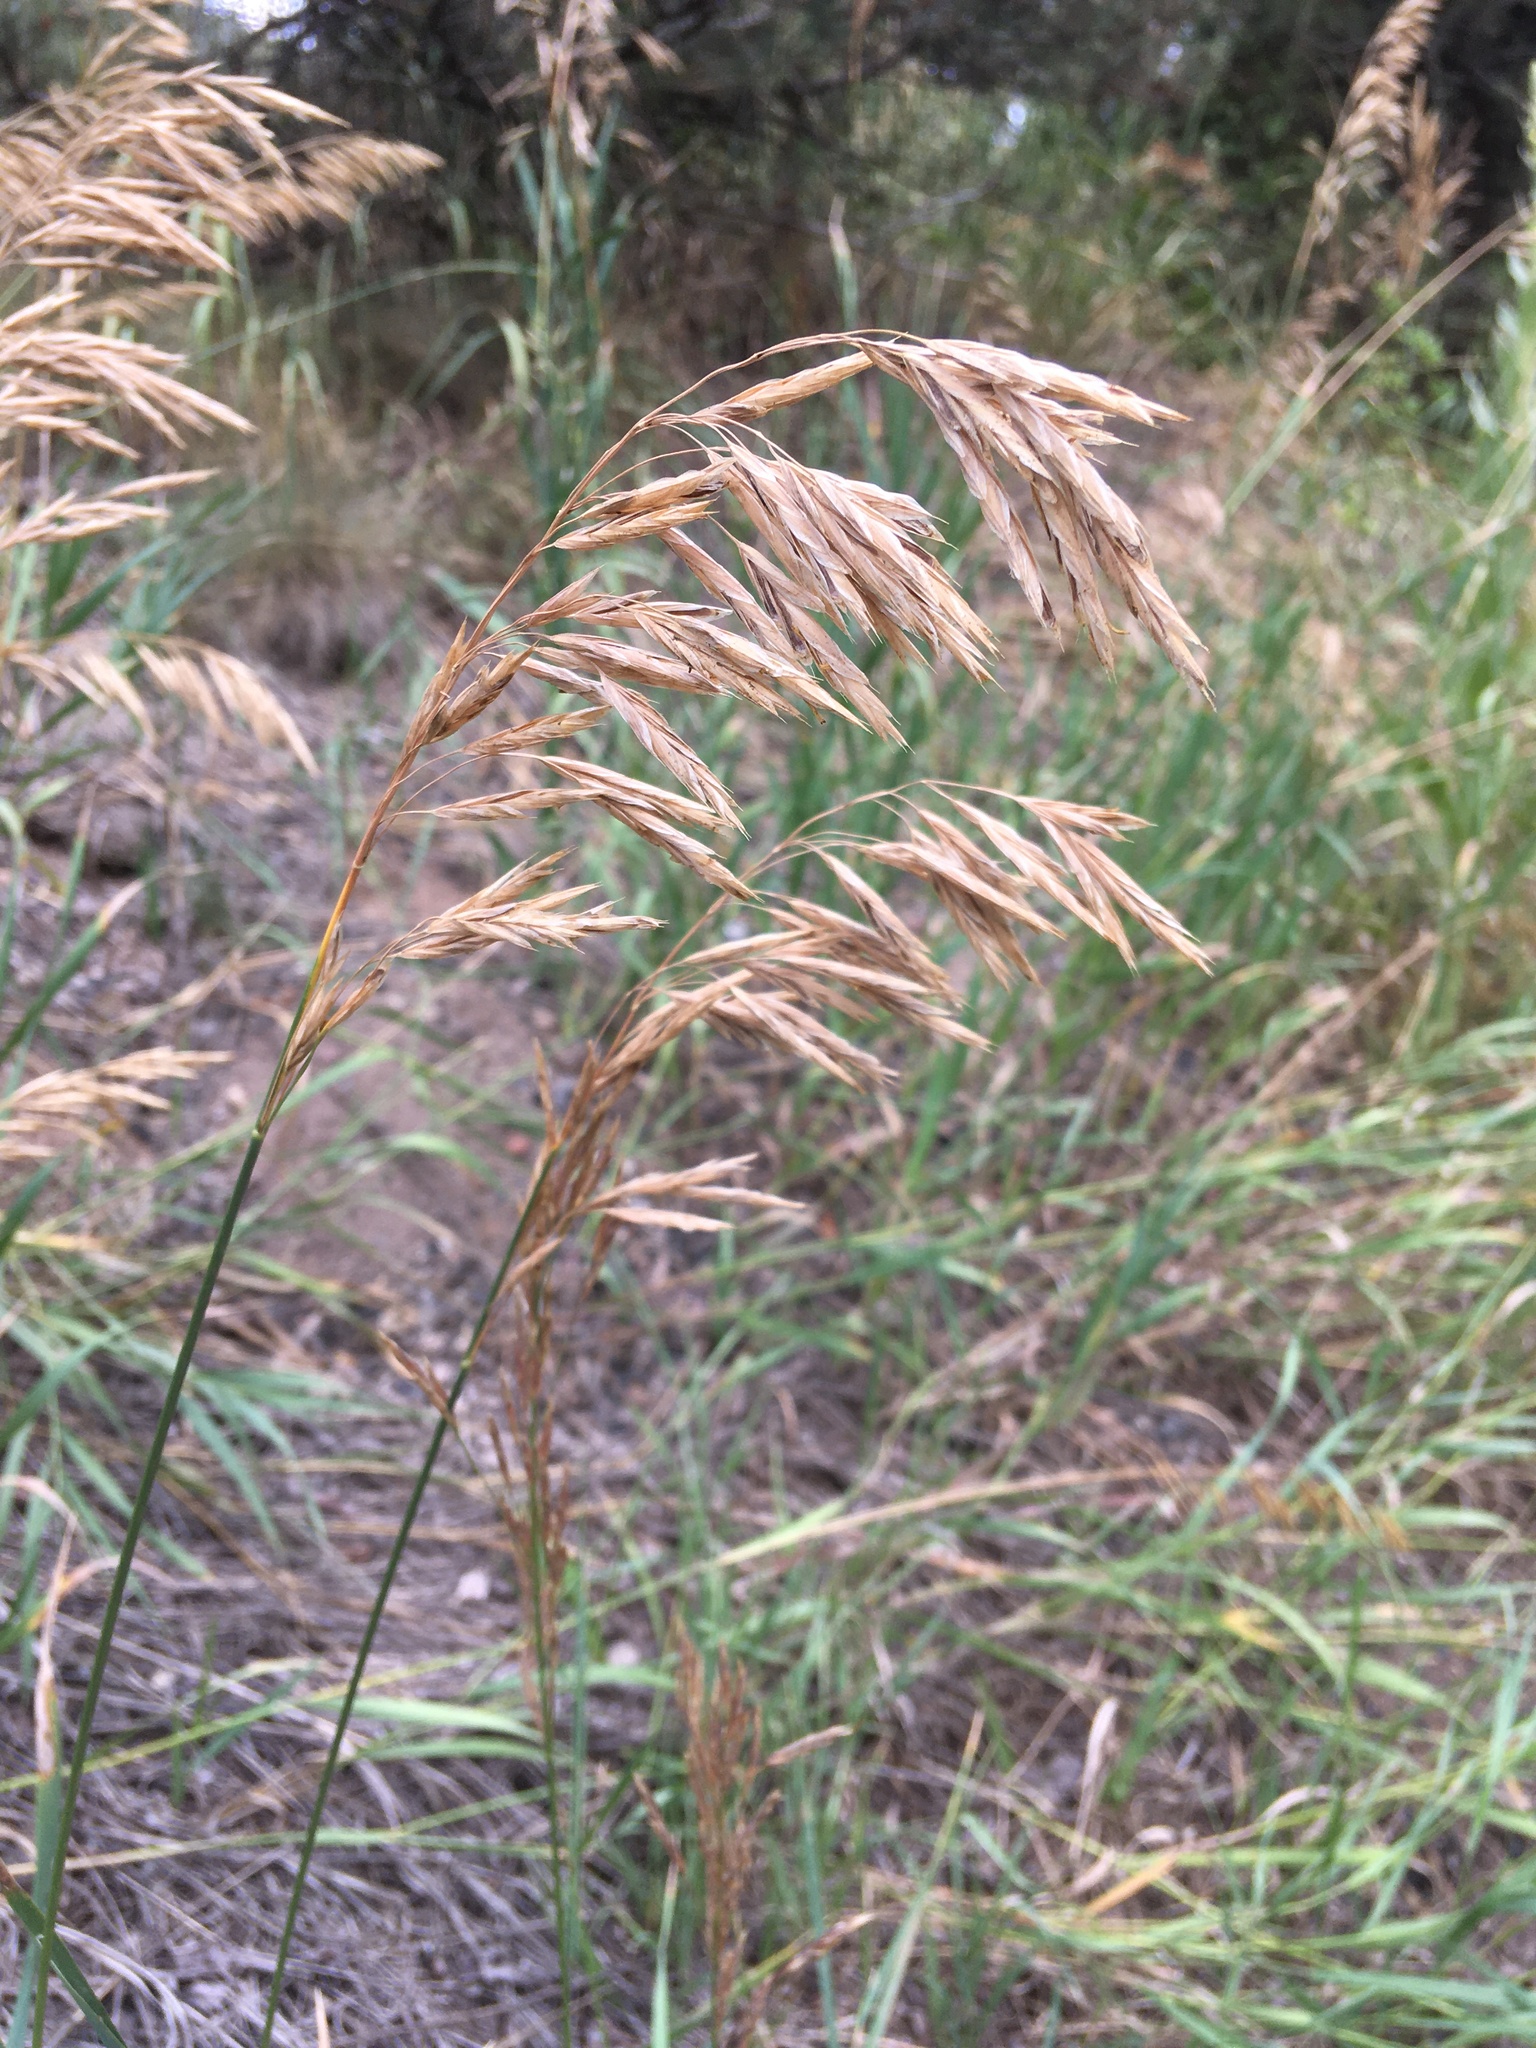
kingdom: Plantae
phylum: Tracheophyta
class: Liliopsida
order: Poales
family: Poaceae
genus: Bromus
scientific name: Bromus inermis
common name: Smooth brome
